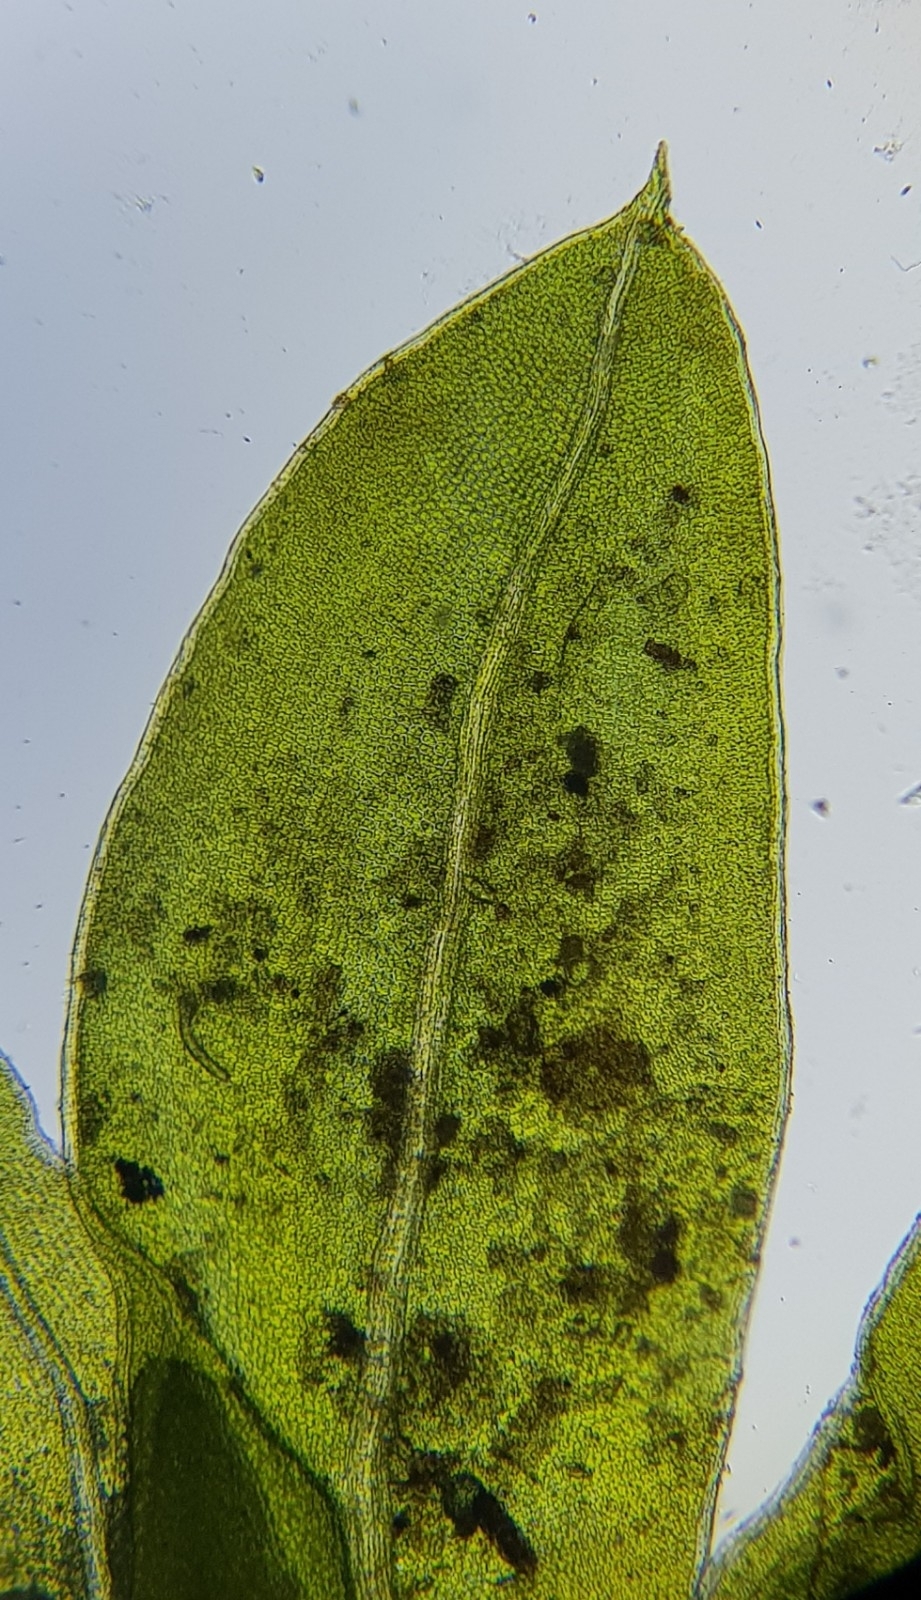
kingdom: Plantae
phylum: Bryophyta
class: Bryopsida
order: Dicranales
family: Fissidentaceae
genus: Fissidens
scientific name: Fissidens bryoides
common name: Lesser pocket moss
